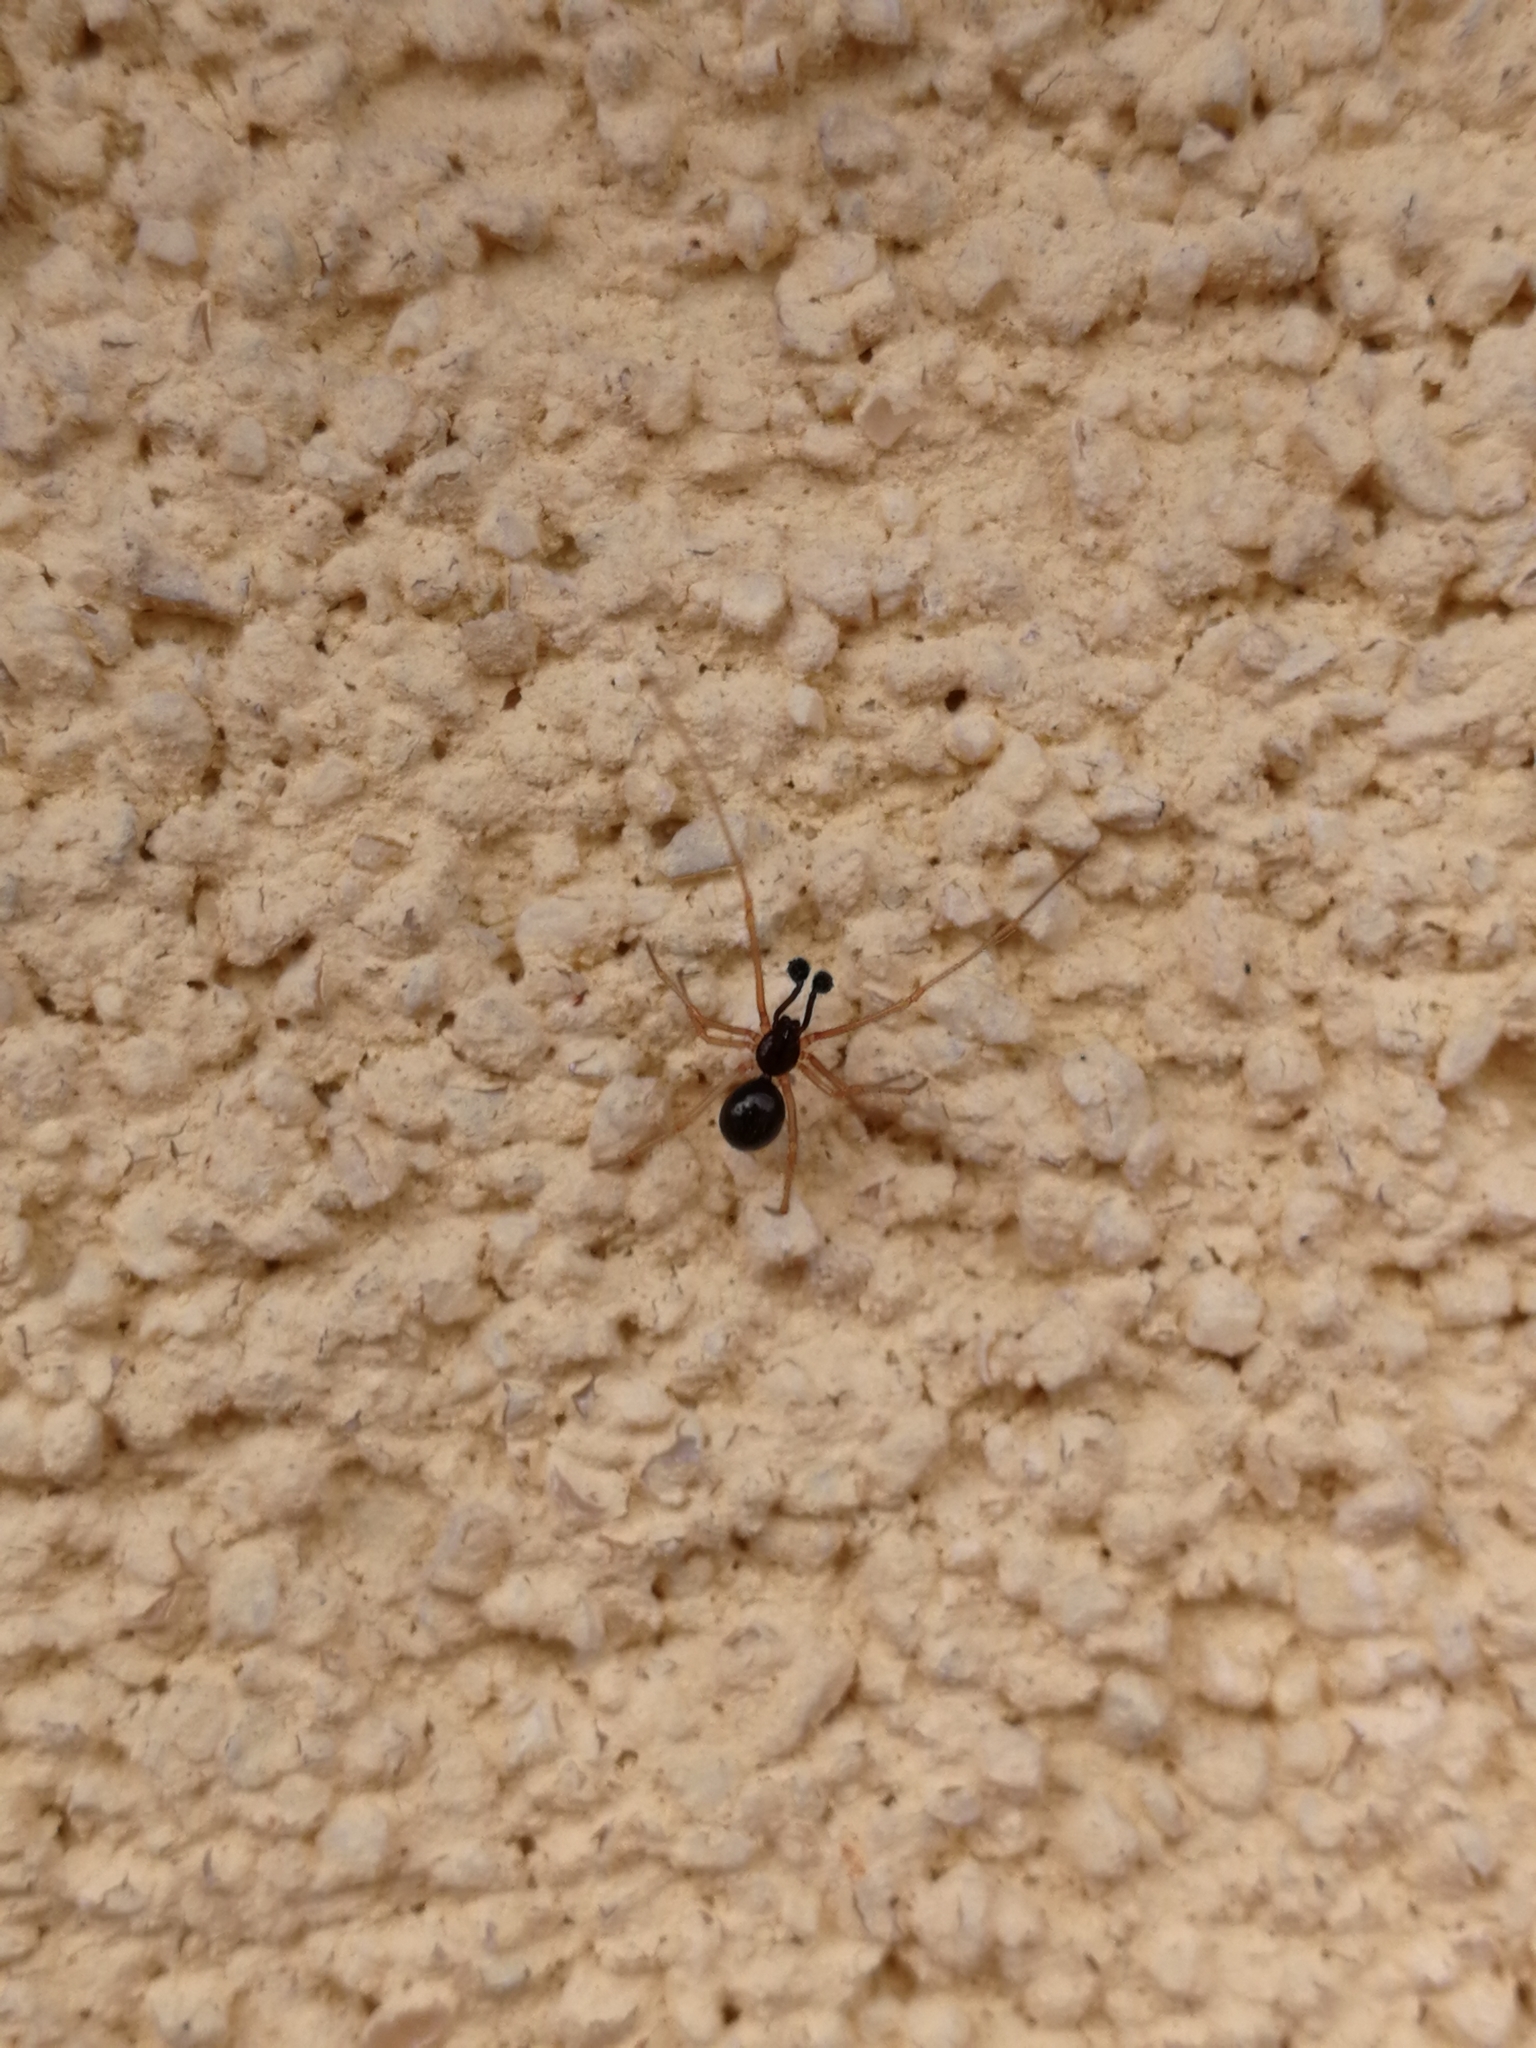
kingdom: Animalia
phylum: Arthropoda
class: Arachnida
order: Araneae
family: Theridiidae
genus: Neottiura
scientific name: Neottiura bimaculata
